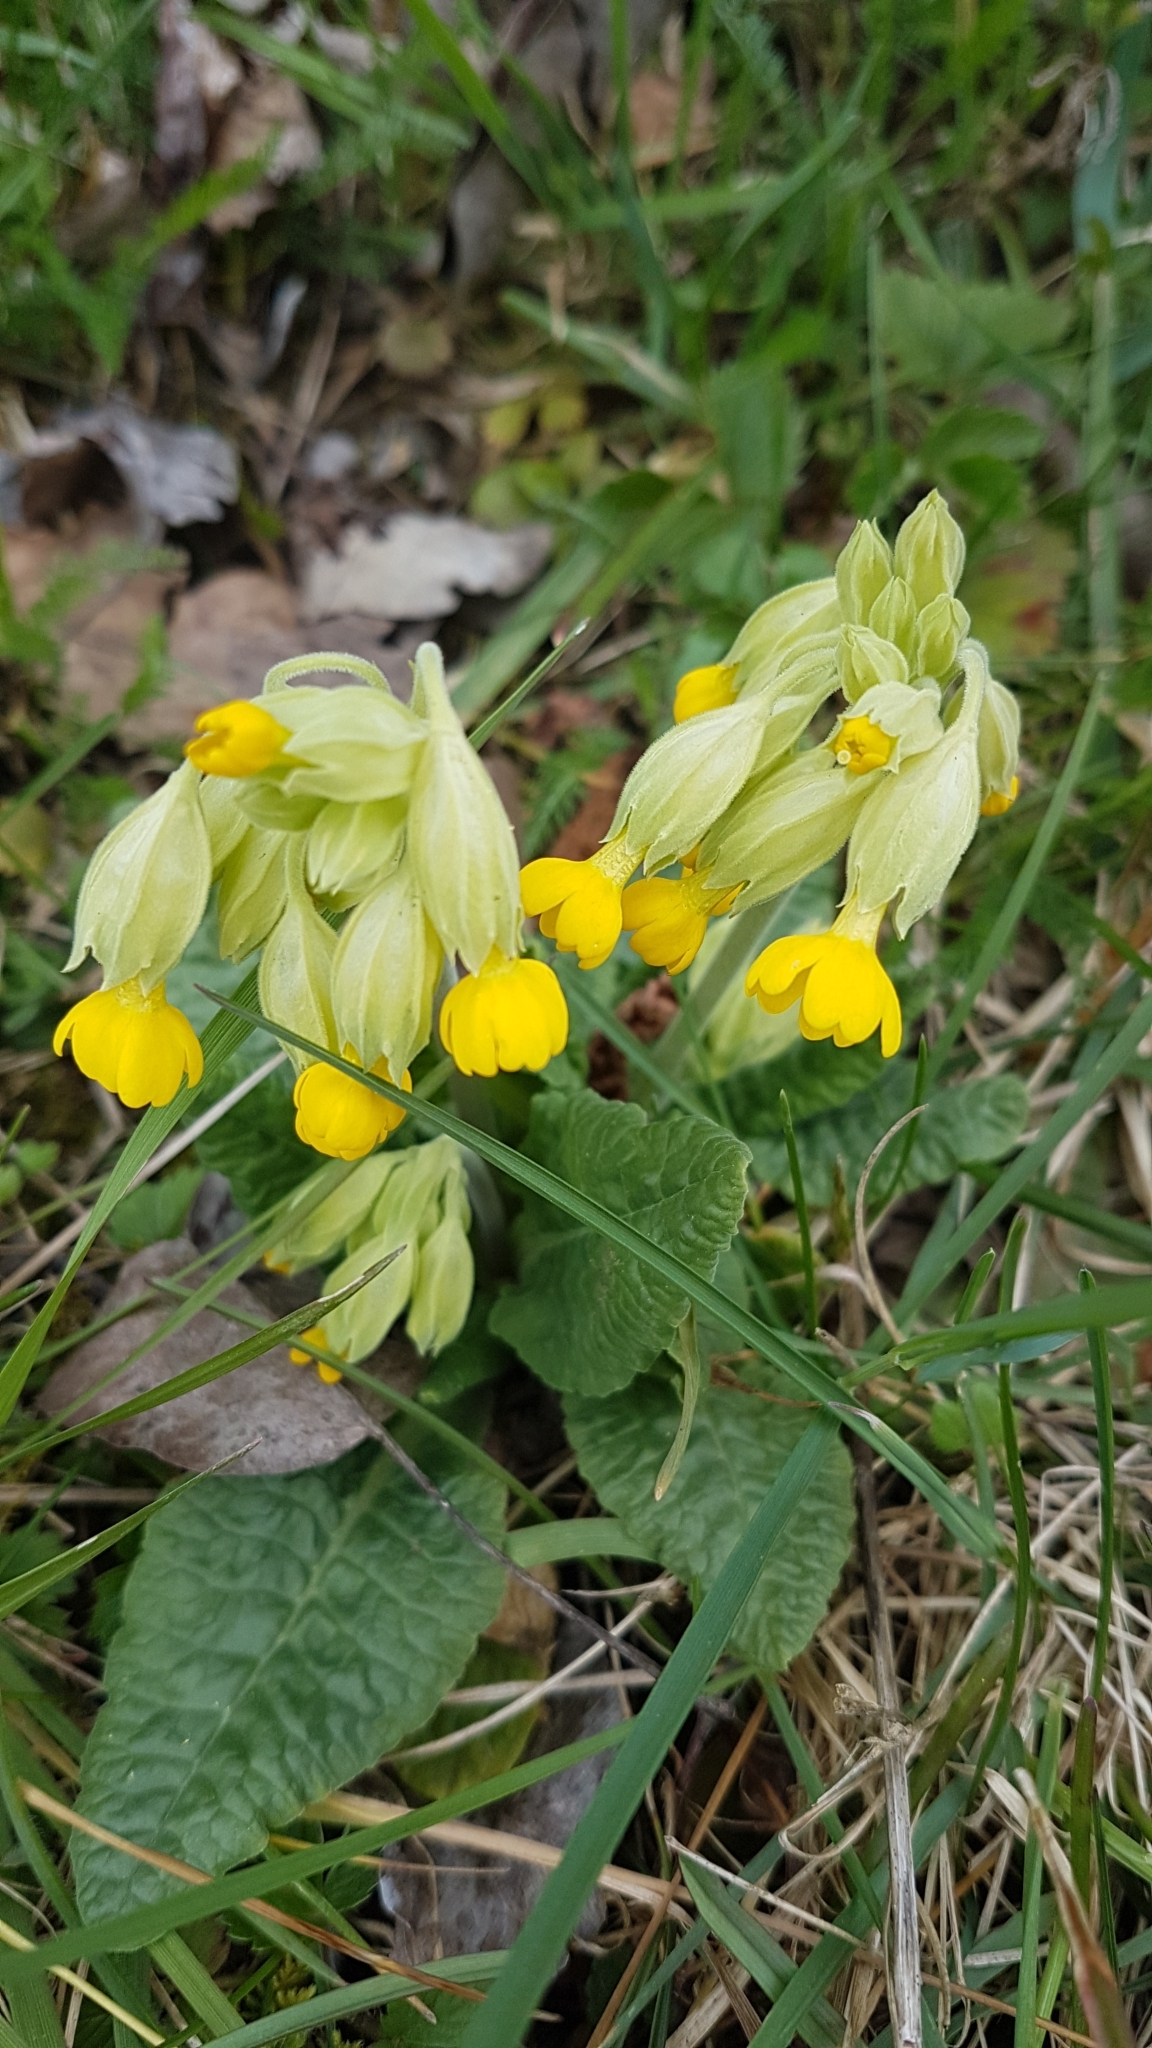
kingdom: Plantae
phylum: Tracheophyta
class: Magnoliopsida
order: Ericales
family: Primulaceae
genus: Primula
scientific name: Primula veris
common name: Cowslip
